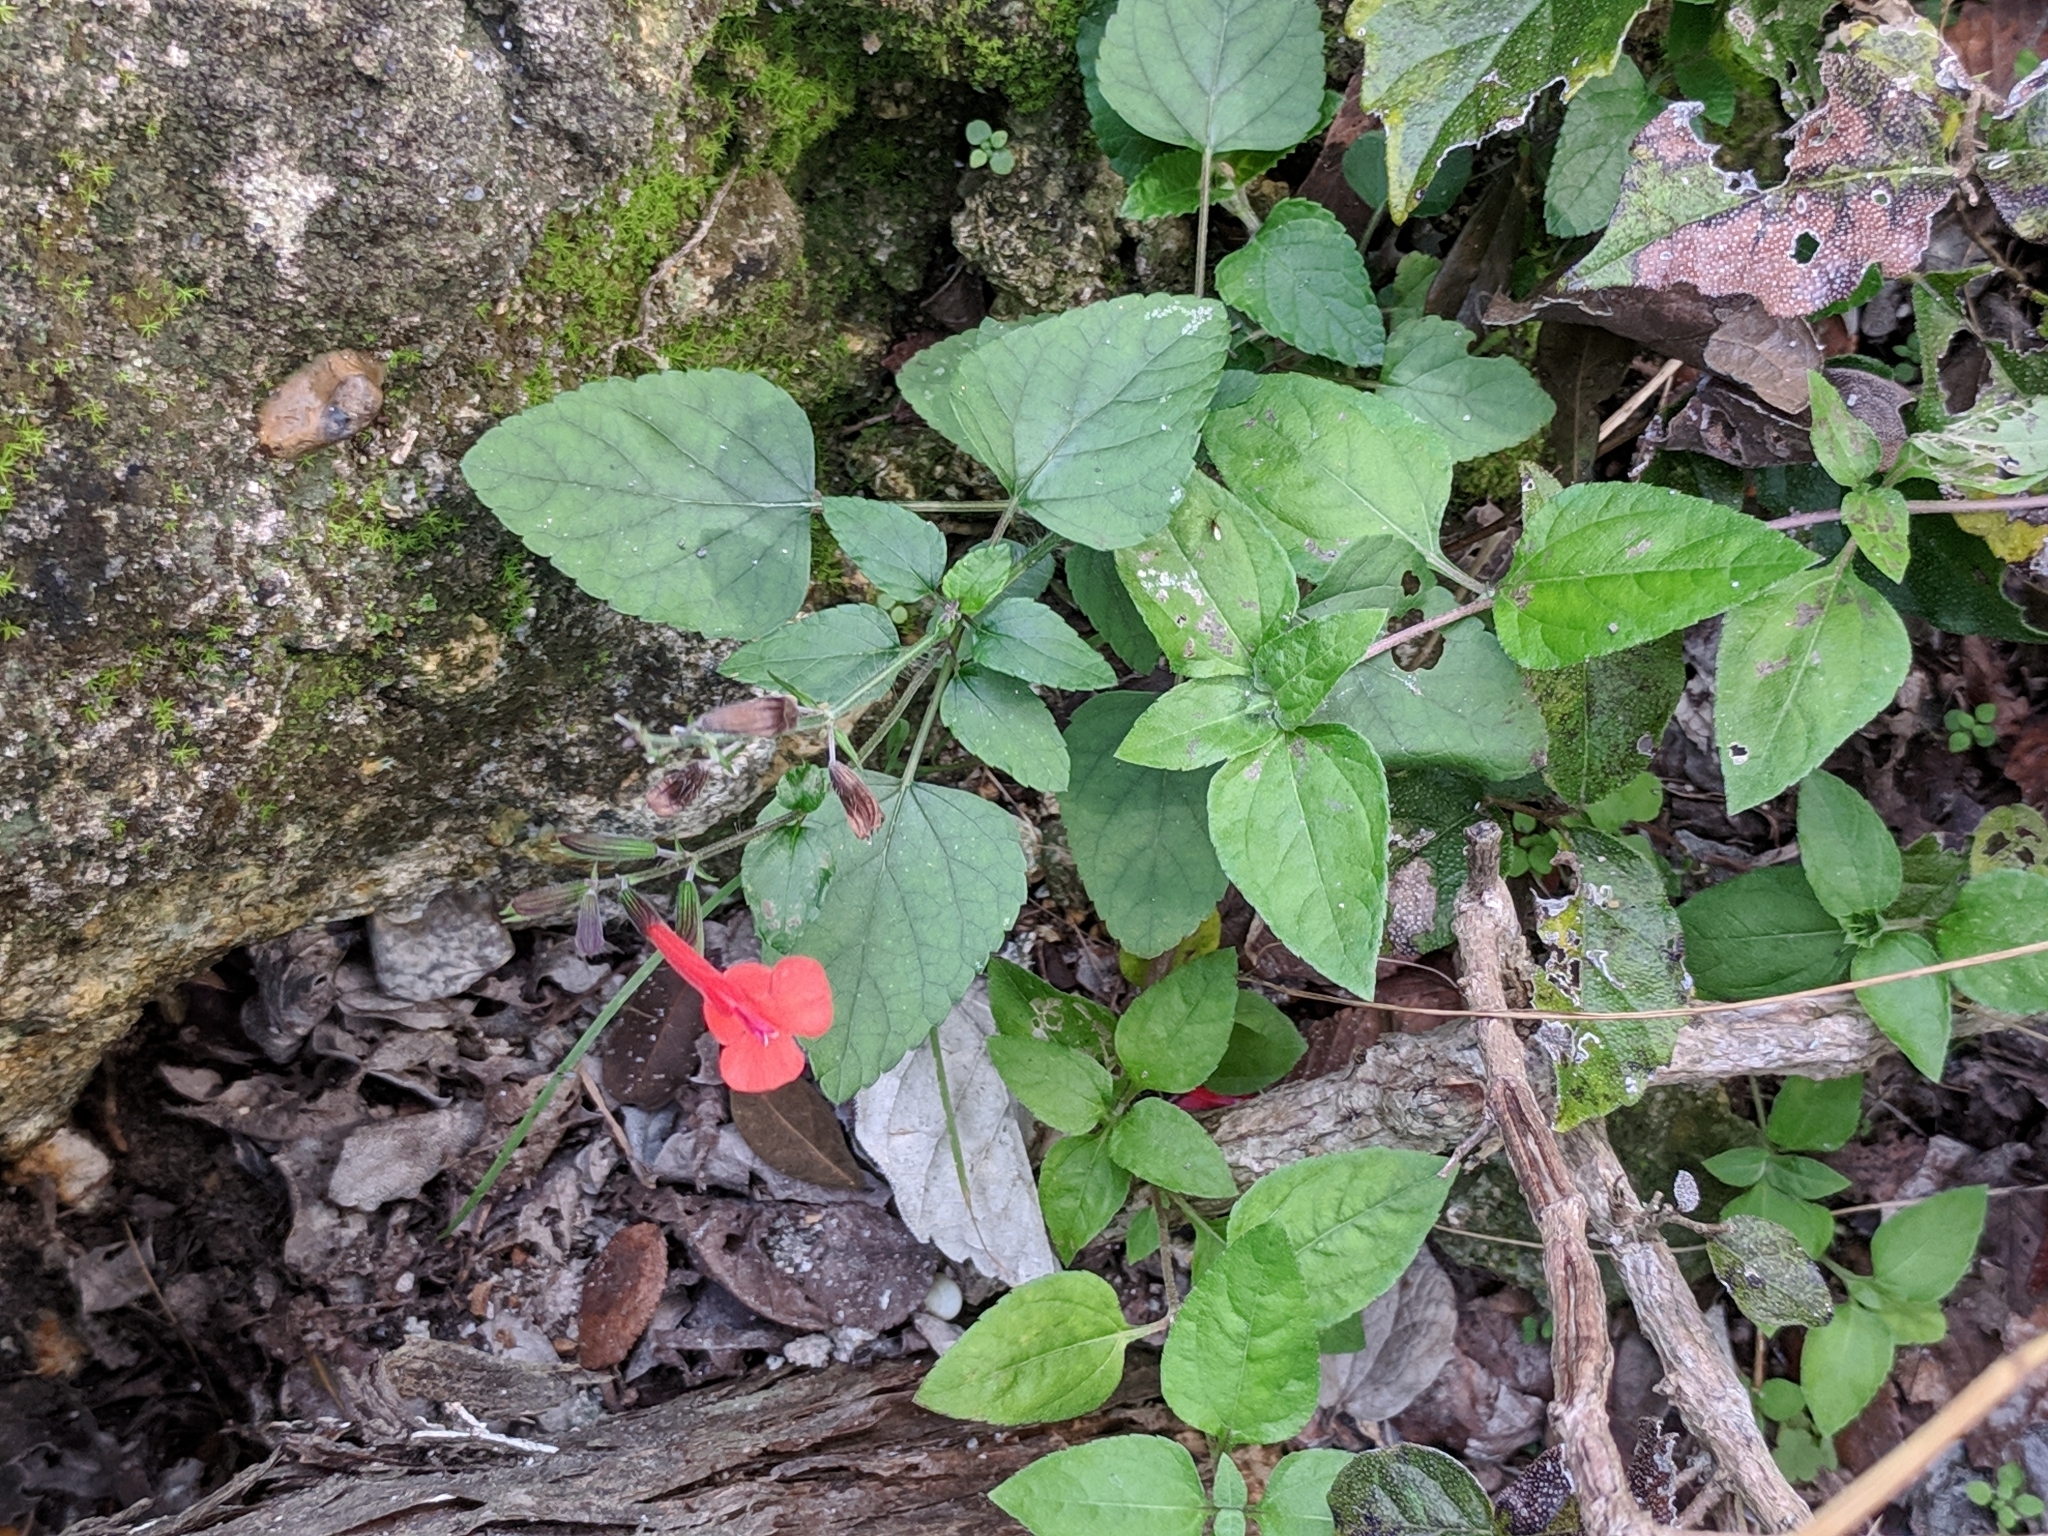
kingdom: Plantae
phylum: Tracheophyta
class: Magnoliopsida
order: Lamiales
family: Lamiaceae
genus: Salvia
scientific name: Salvia coccinea
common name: Blood sage
